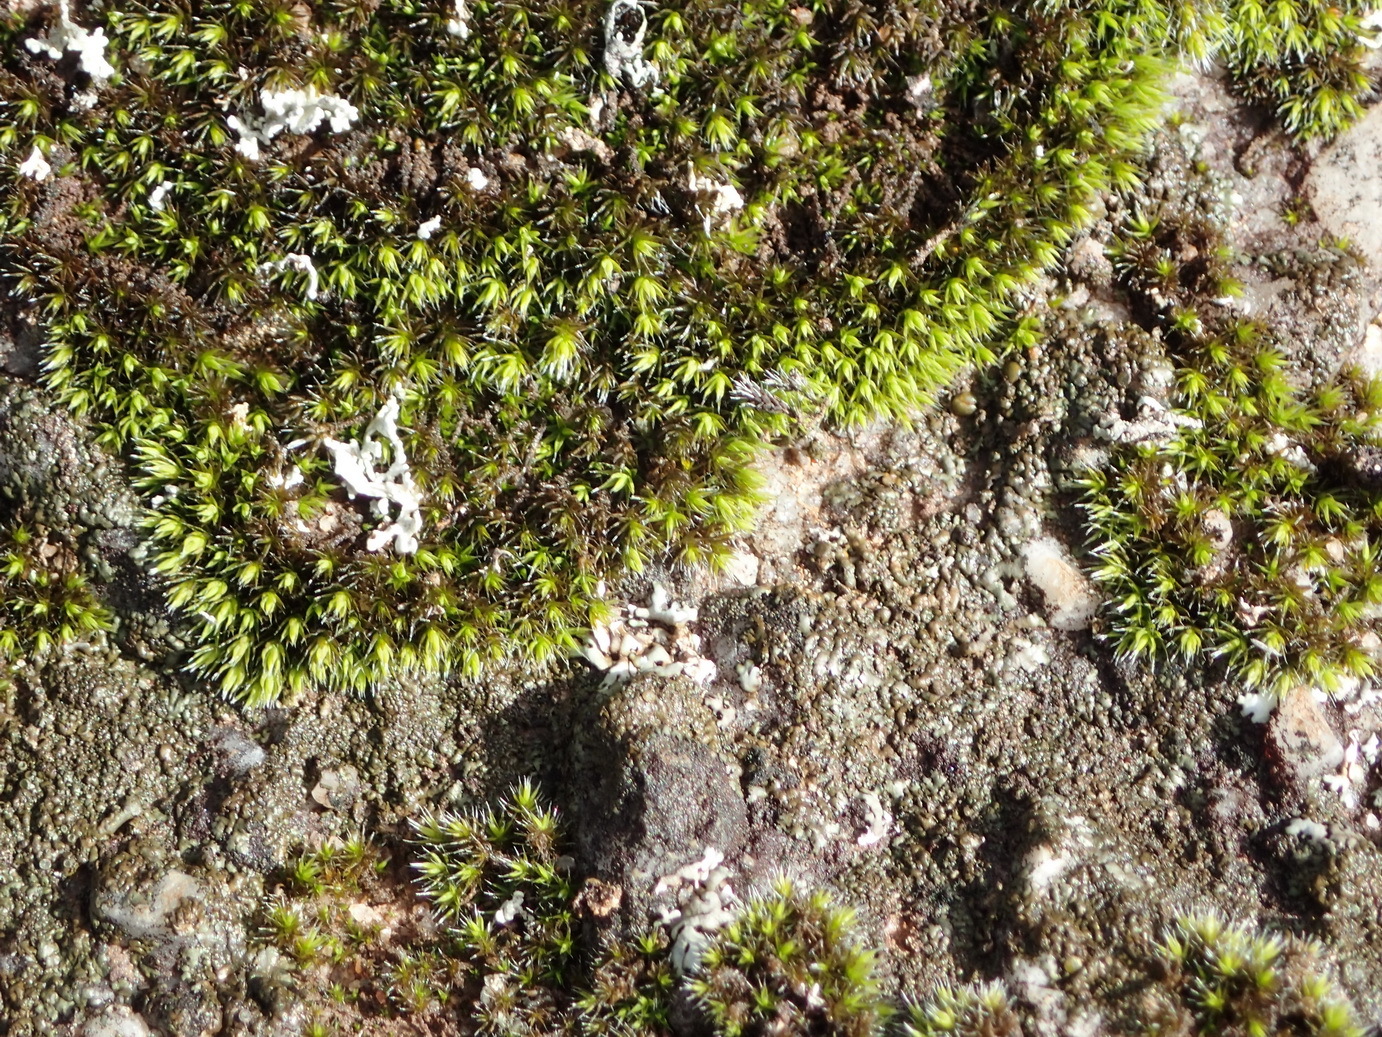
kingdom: Plantae
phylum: Bryophyta
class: Bryopsida
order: Grimmiales
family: Grimmiaceae
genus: Grimmia
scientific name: Grimmia laevigata
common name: Hoary grimmia
